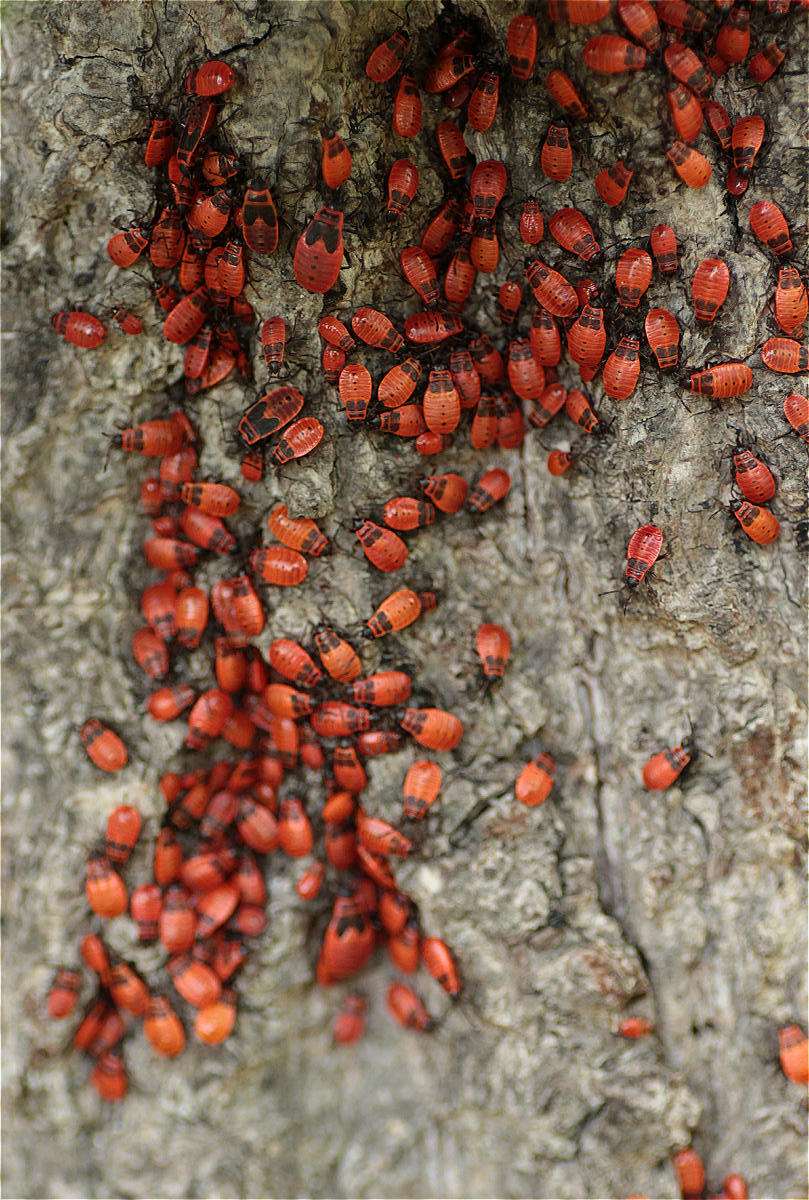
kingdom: Animalia
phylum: Arthropoda
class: Insecta
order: Hemiptera
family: Pyrrhocoridae
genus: Pyrrhocoris
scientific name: Pyrrhocoris apterus
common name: Firebug
